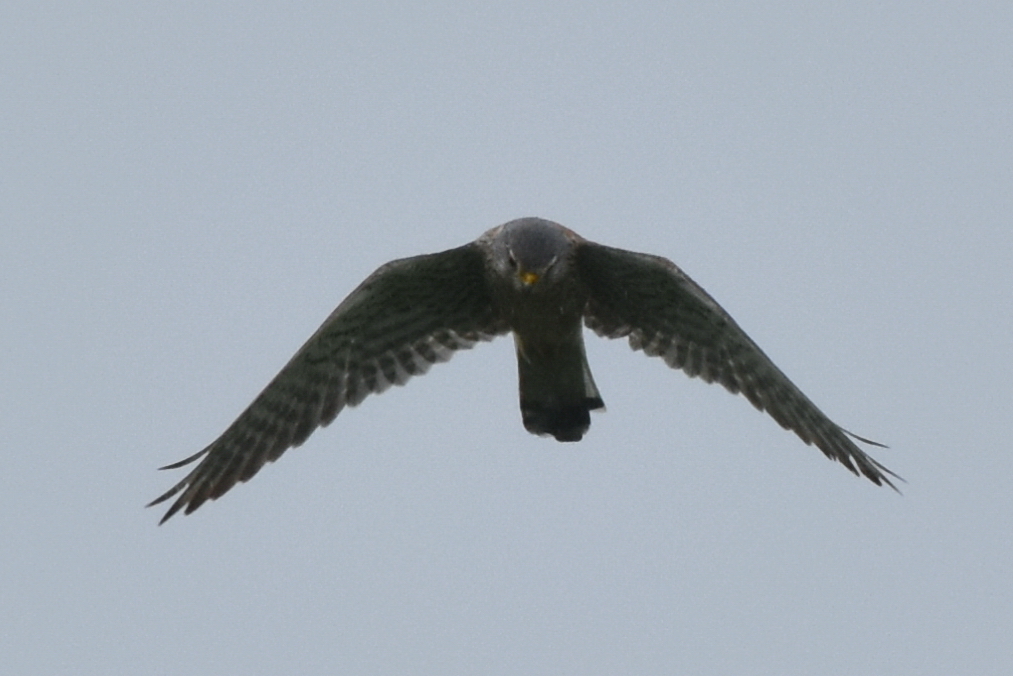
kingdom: Animalia
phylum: Chordata
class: Aves
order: Falconiformes
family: Falconidae
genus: Falco
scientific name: Falco tinnunculus
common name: Common kestrel
